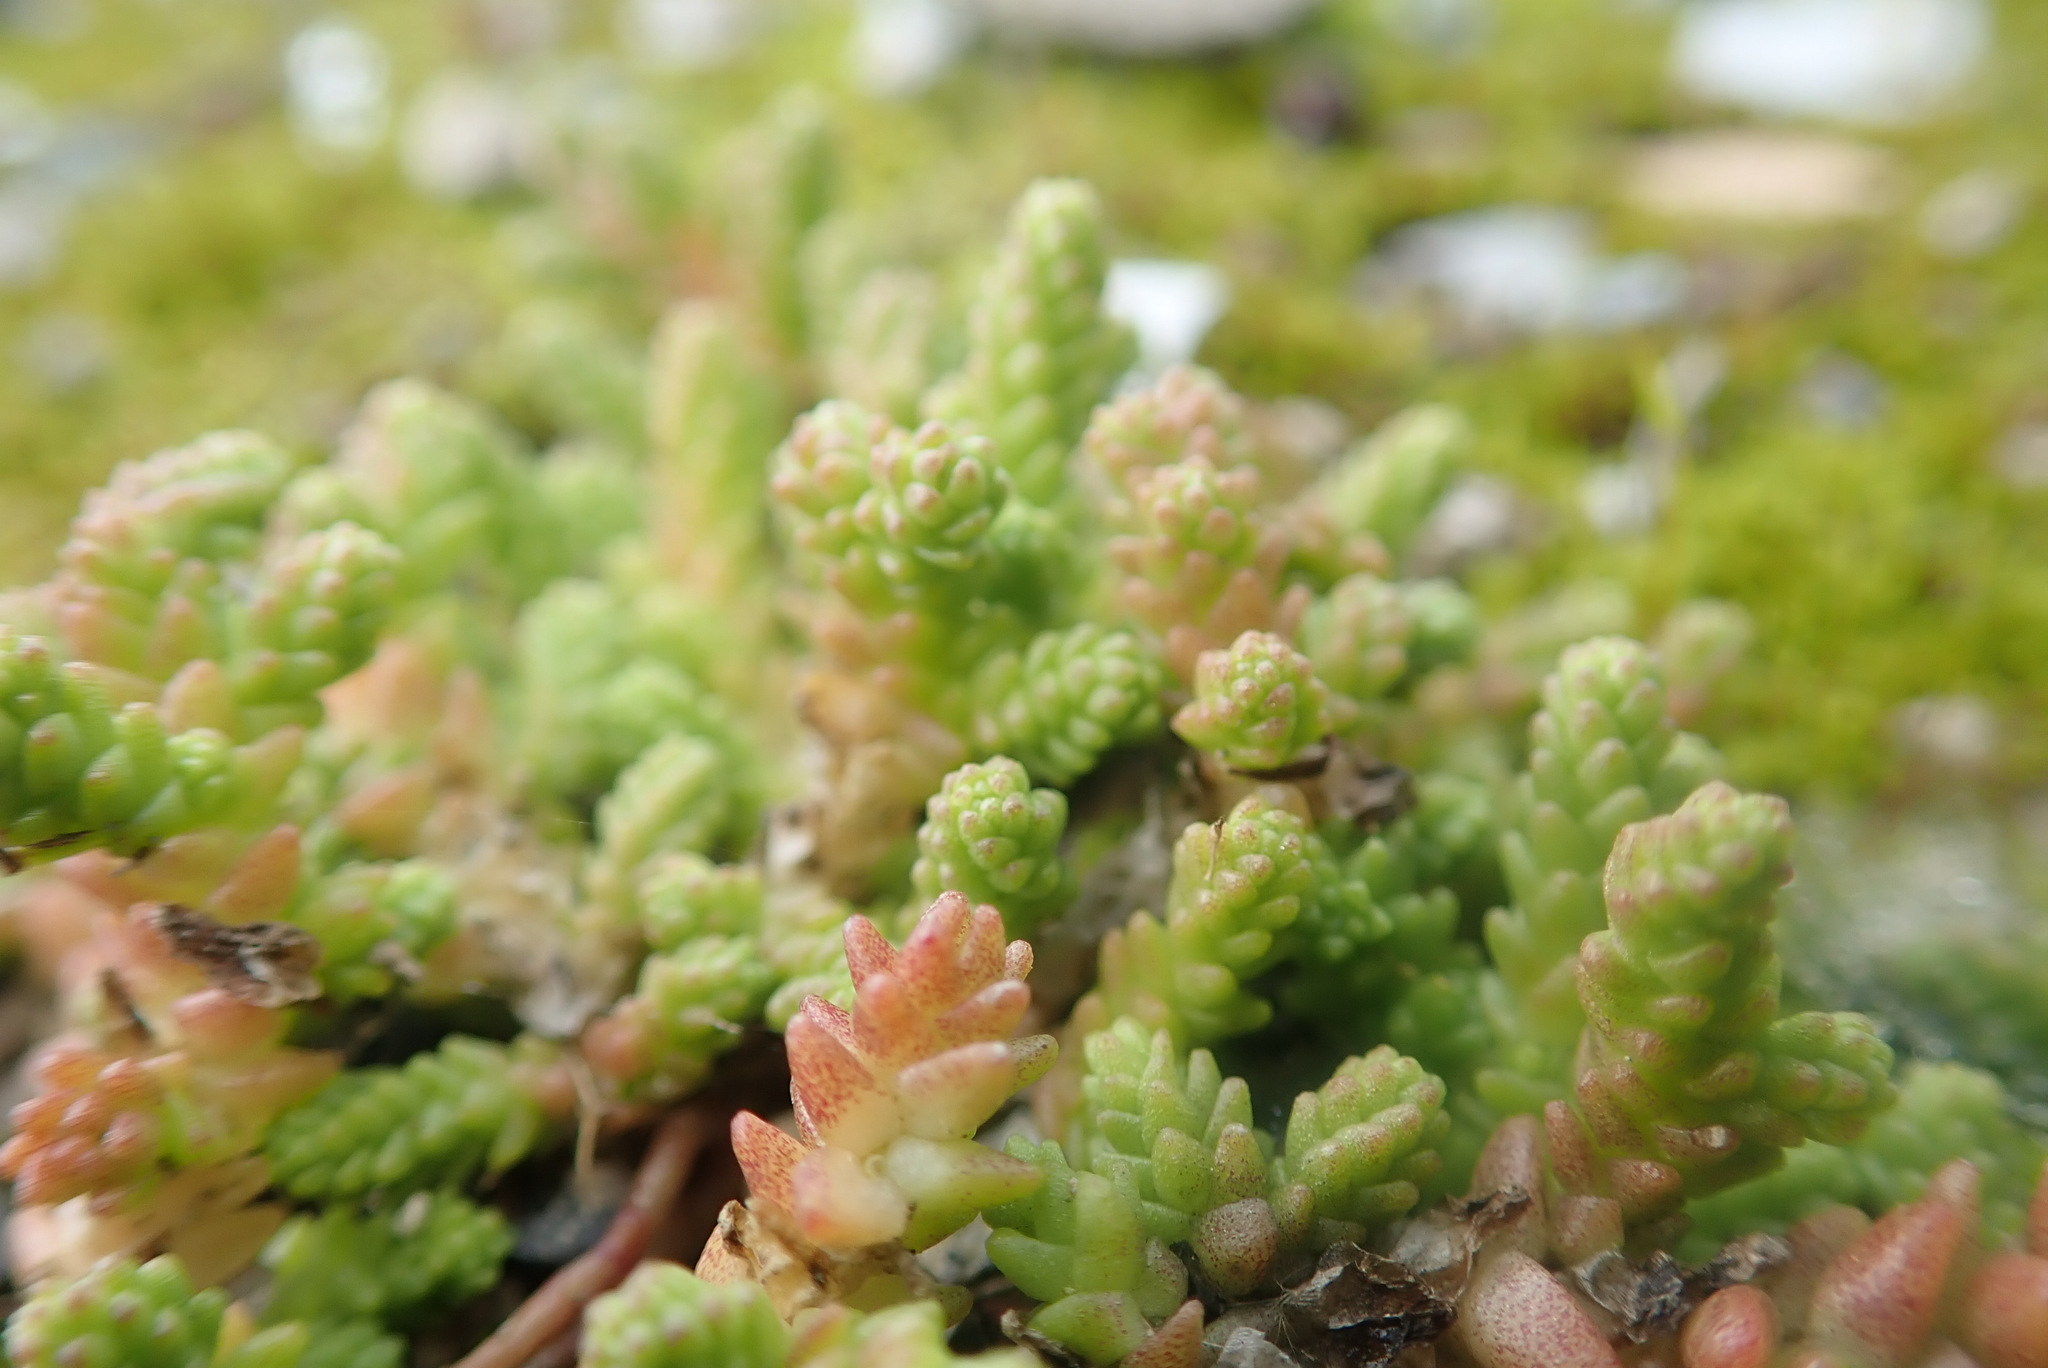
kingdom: Plantae
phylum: Tracheophyta
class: Magnoliopsida
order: Saxifragales
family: Crassulaceae
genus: Sedum
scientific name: Sedum acre
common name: Biting stonecrop
